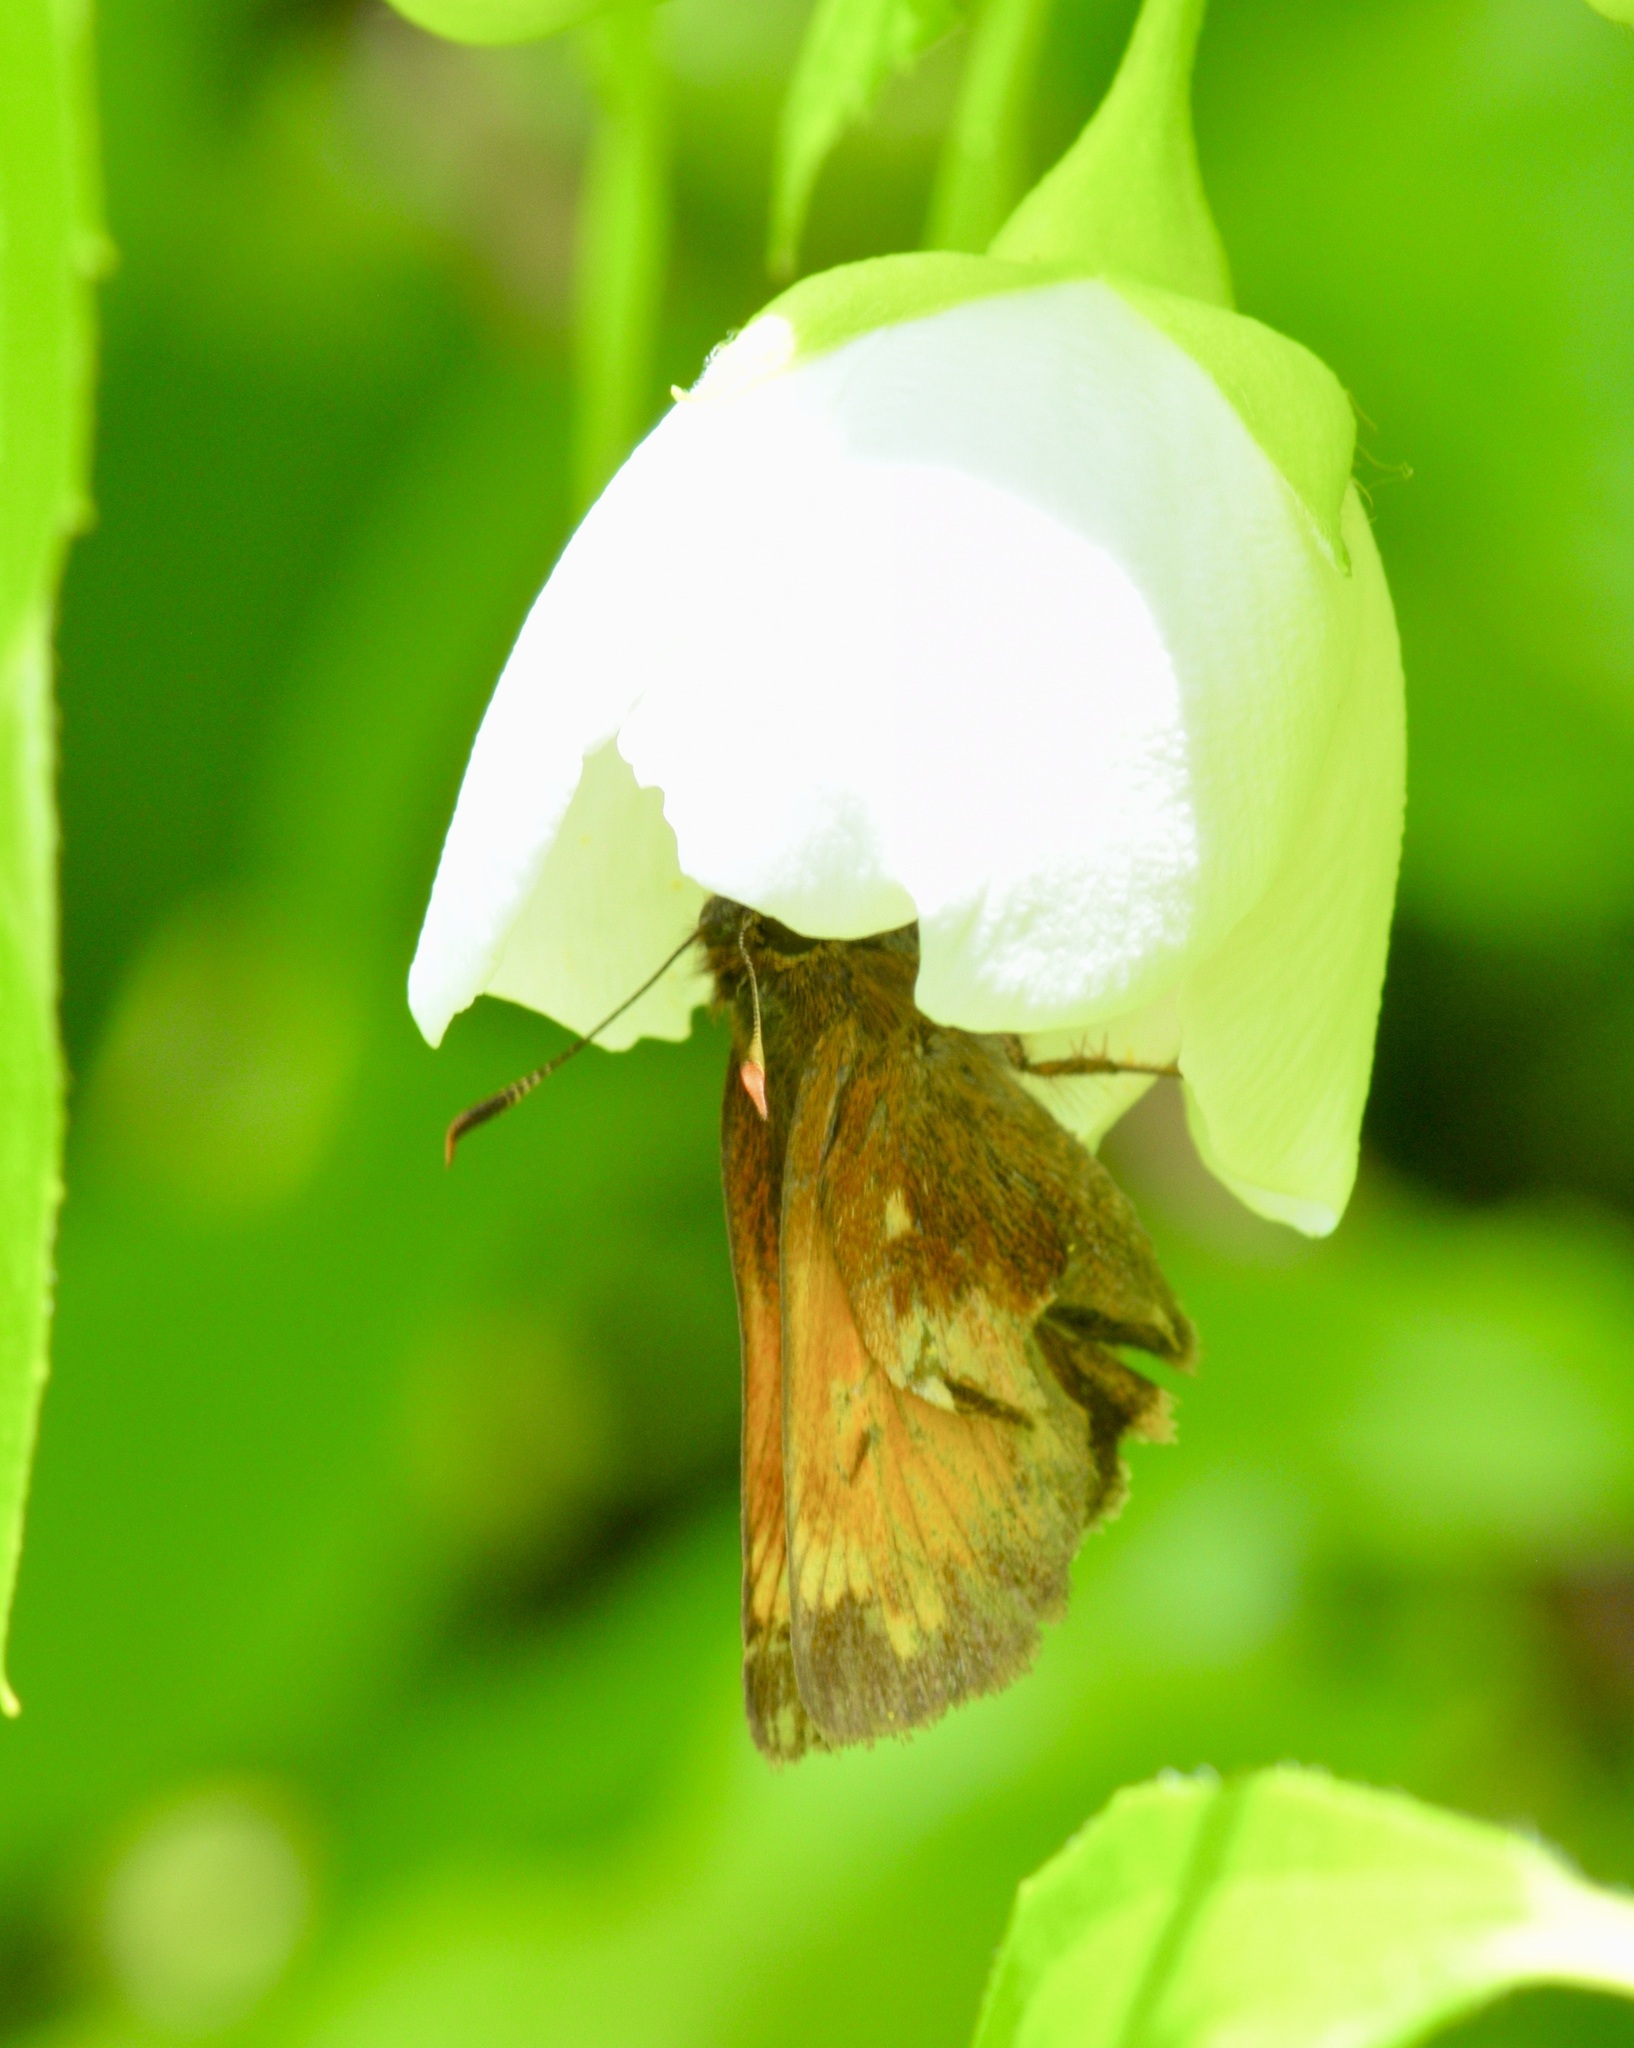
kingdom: Animalia
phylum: Arthropoda
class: Insecta
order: Lepidoptera
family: Hesperiidae
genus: Lon
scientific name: Lon hobomok
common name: Hobomok skipper
